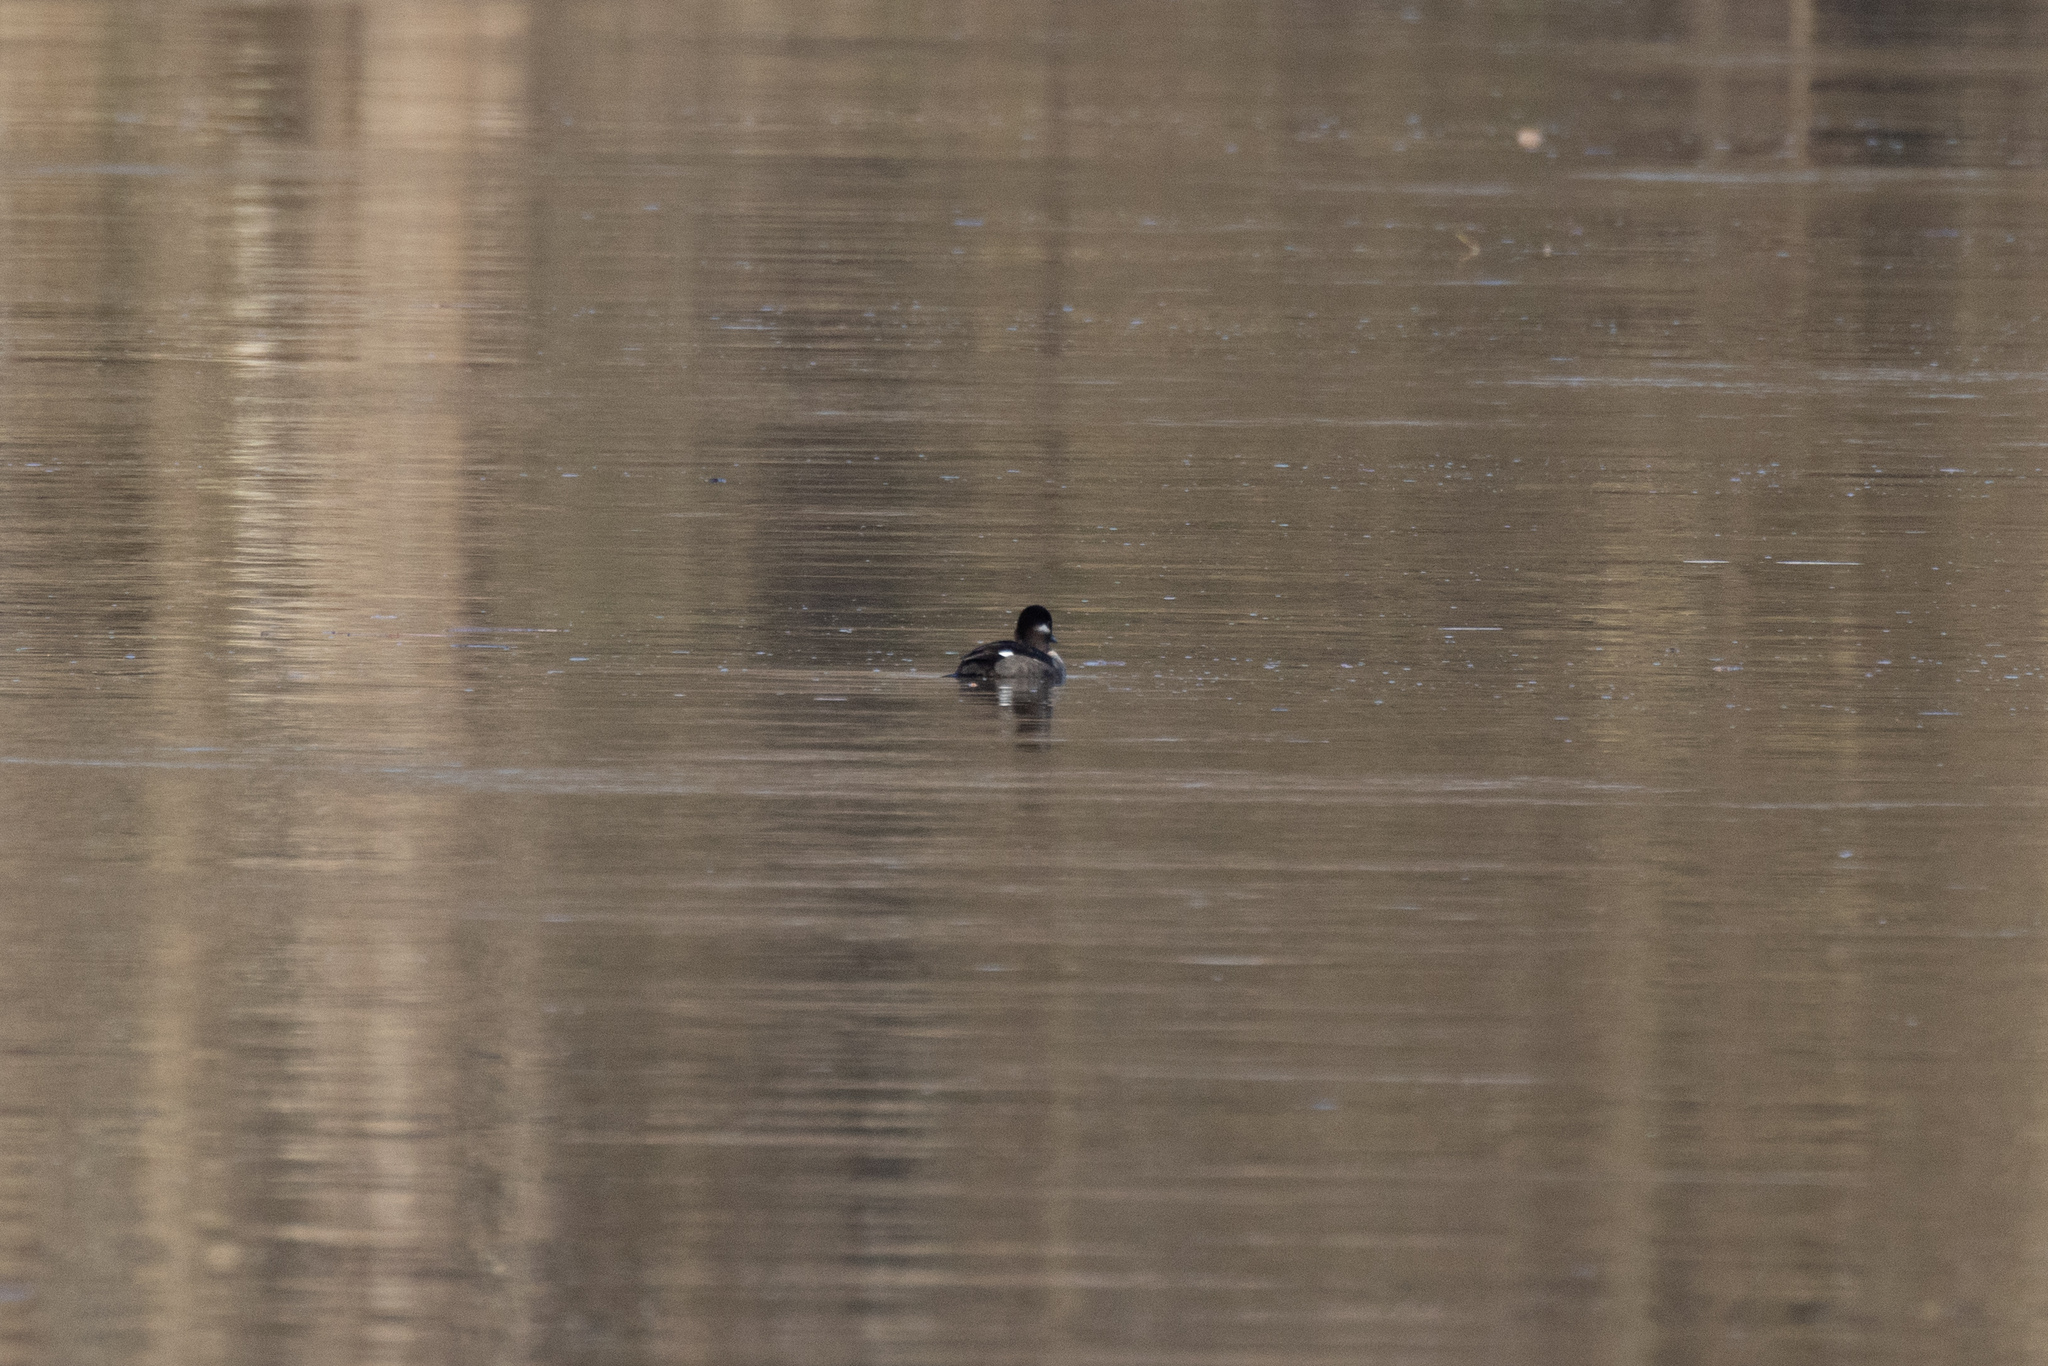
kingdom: Animalia
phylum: Chordata
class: Aves
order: Anseriformes
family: Anatidae
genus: Bucephala
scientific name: Bucephala albeola
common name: Bufflehead
